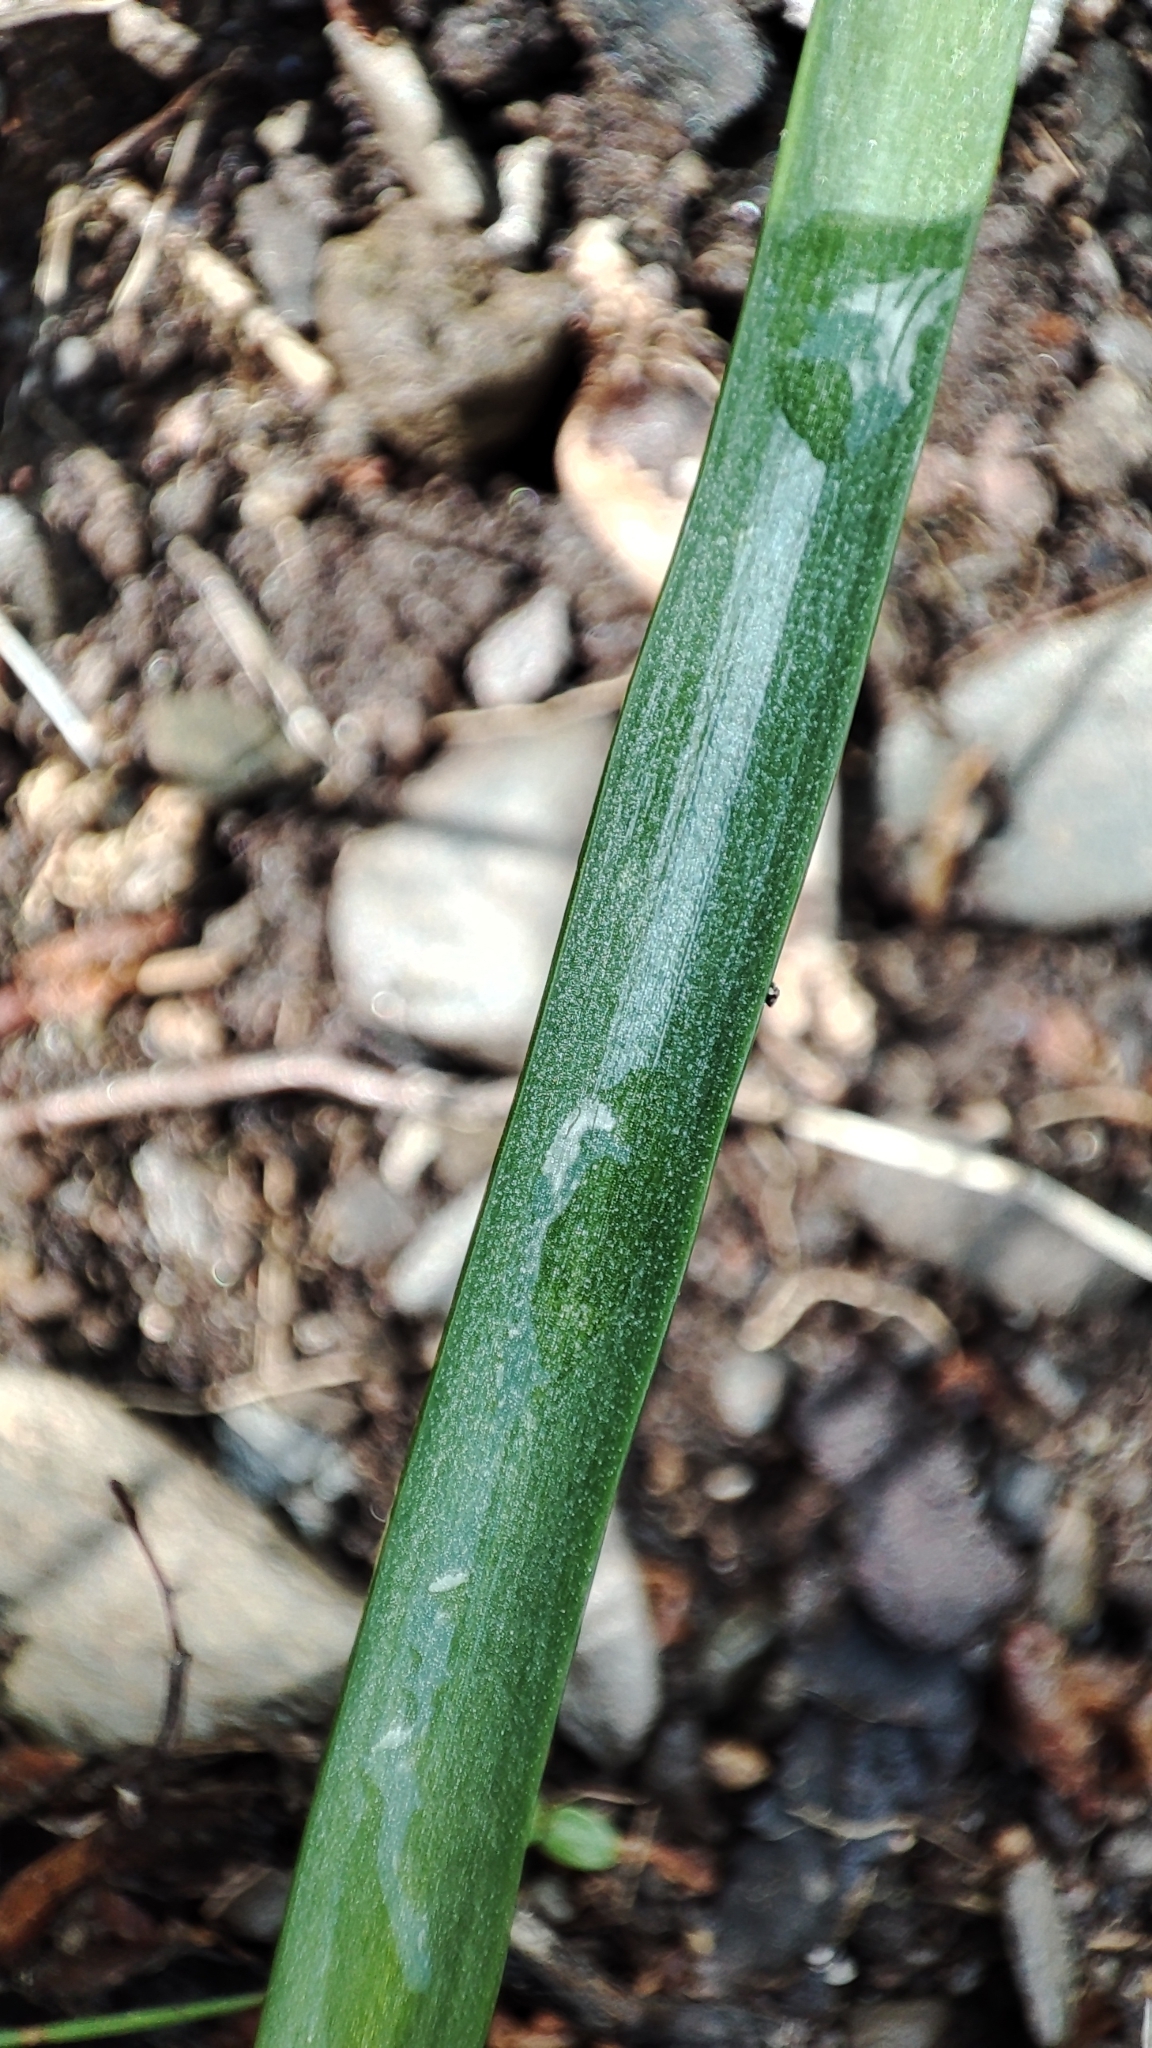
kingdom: Plantae
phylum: Tracheophyta
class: Liliopsida
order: Asparagales
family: Asparagaceae
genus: Brimeura
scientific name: Brimeura amethystina
